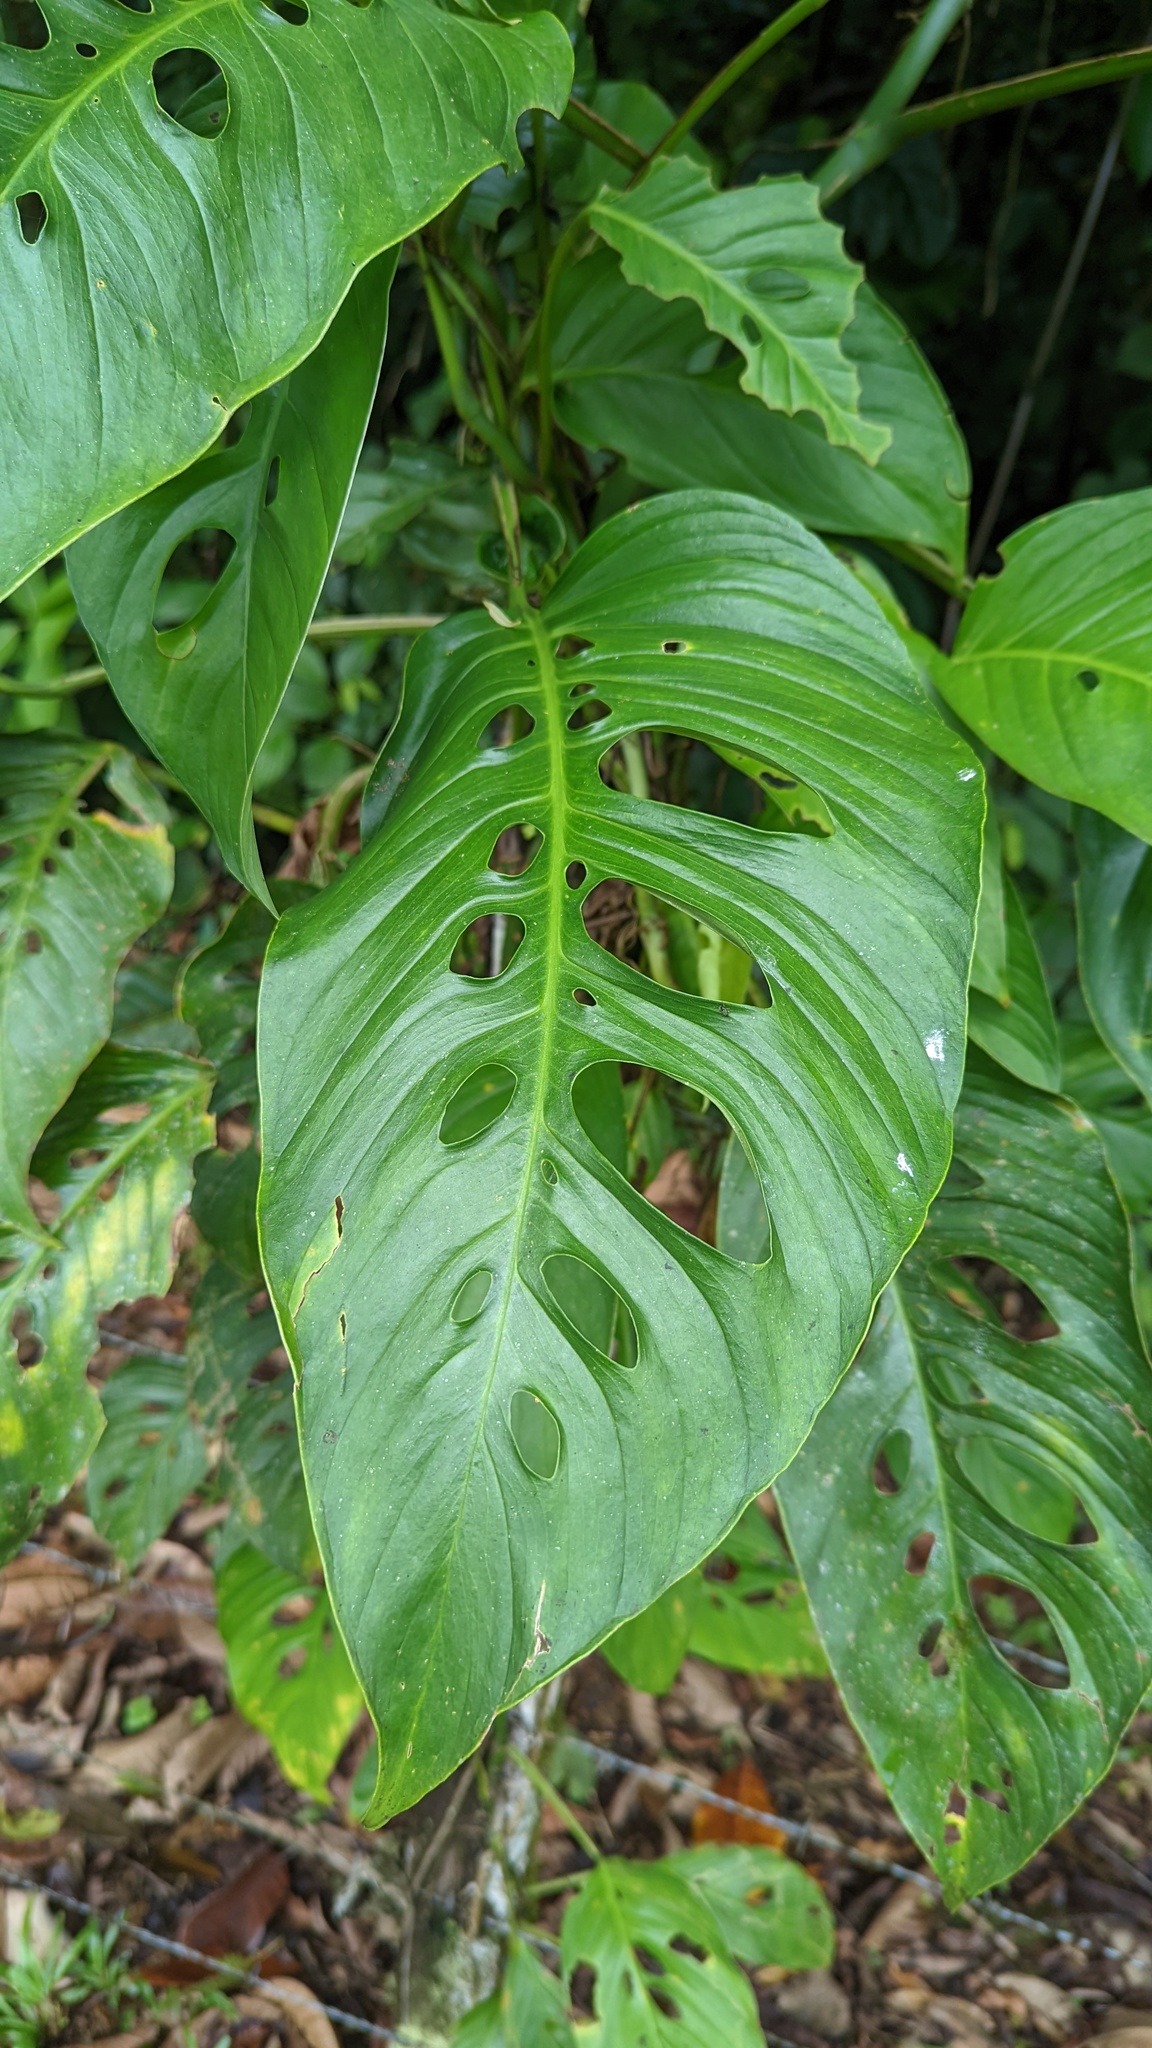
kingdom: Plantae
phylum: Tracheophyta
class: Liliopsida
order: Alismatales
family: Araceae
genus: Monstera
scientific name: Monstera adansonii
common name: Tarovine
